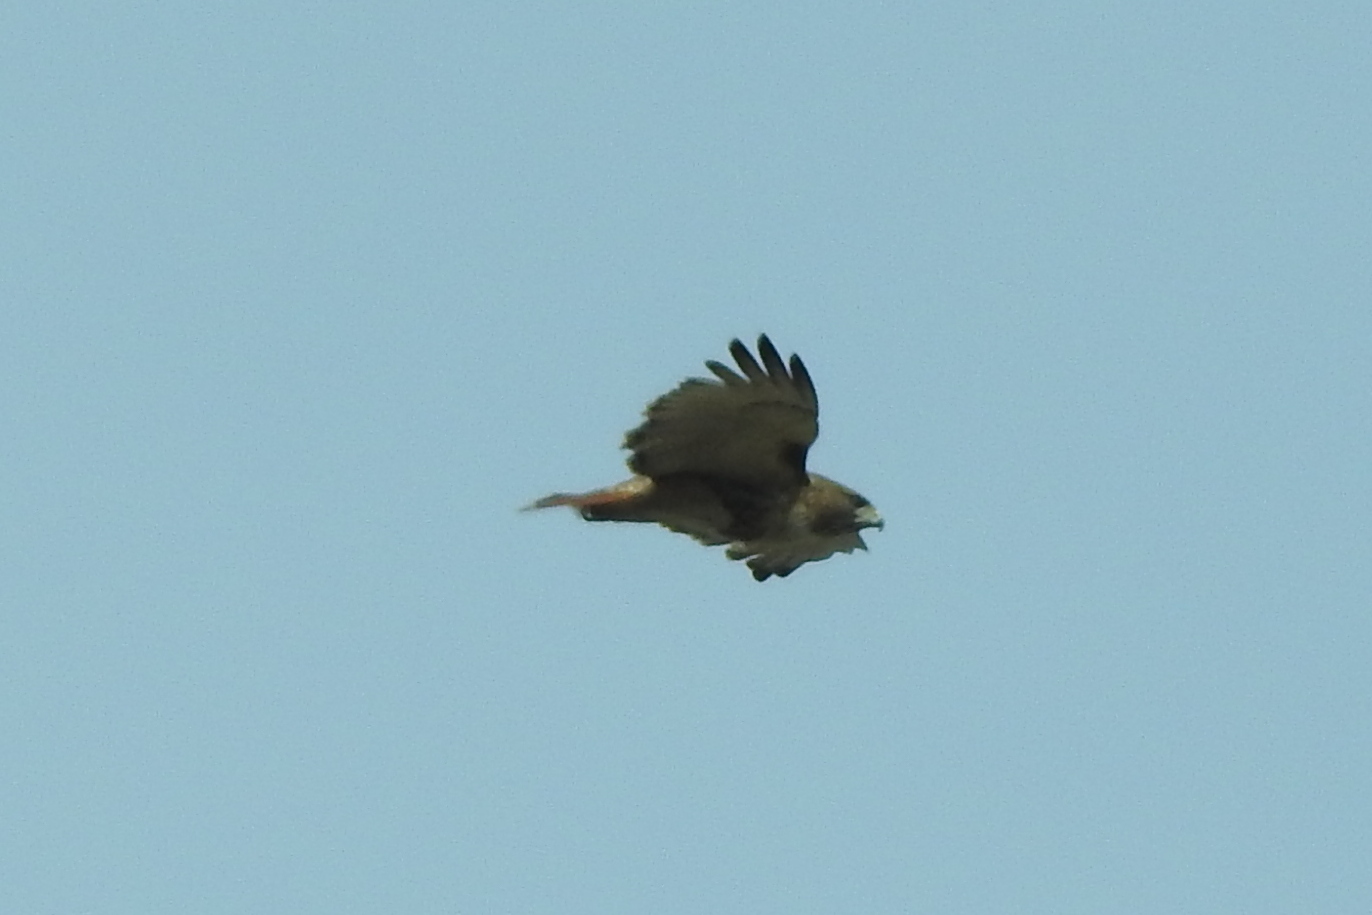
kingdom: Animalia
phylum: Chordata
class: Aves
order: Accipitriformes
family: Accipitridae
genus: Buteo
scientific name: Buteo jamaicensis
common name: Red-tailed hawk
